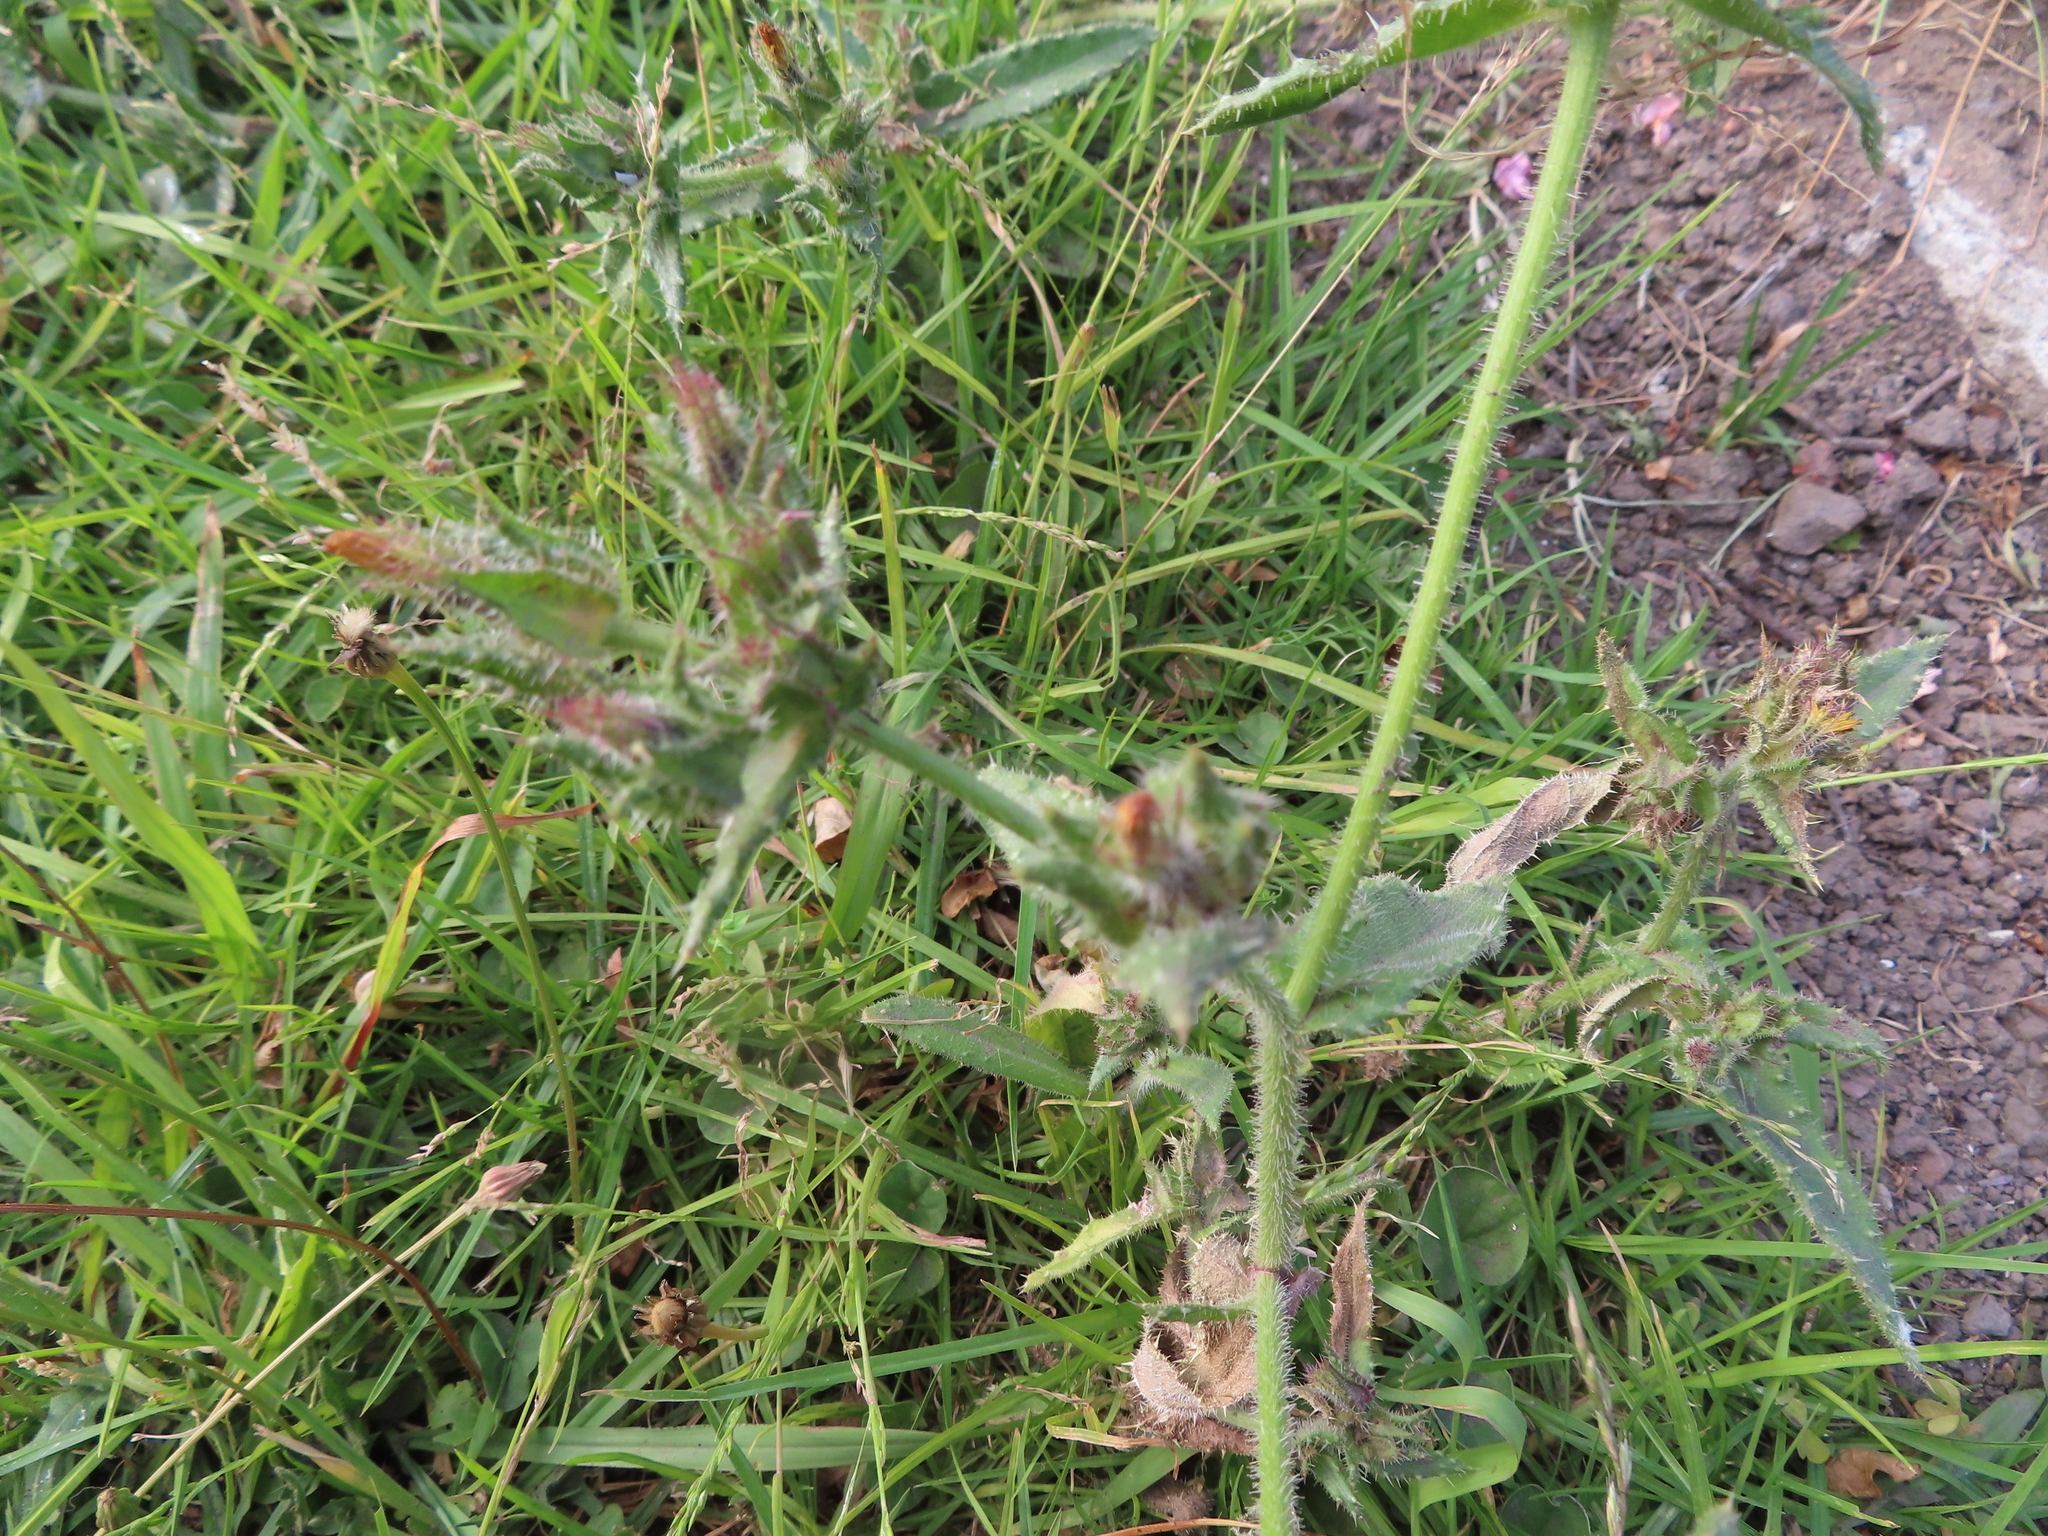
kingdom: Plantae
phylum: Tracheophyta
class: Magnoliopsida
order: Asterales
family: Asteraceae
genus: Helminthotheca
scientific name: Helminthotheca echioides
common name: Ox-tongue
